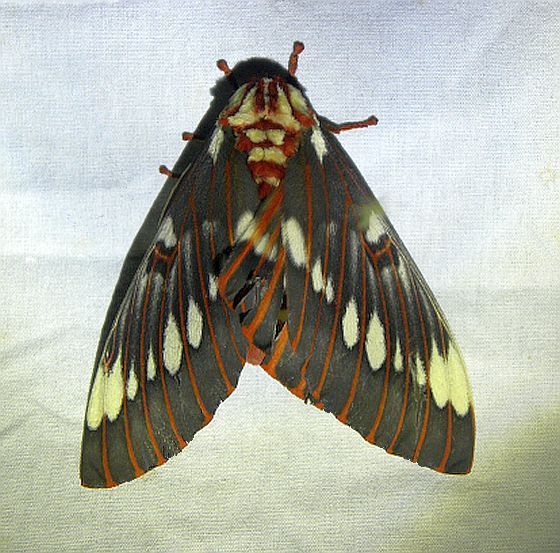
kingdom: Animalia
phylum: Arthropoda
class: Insecta
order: Lepidoptera
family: Saturniidae
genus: Citheronia
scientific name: Citheronia splendens
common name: Splendid royal moth
